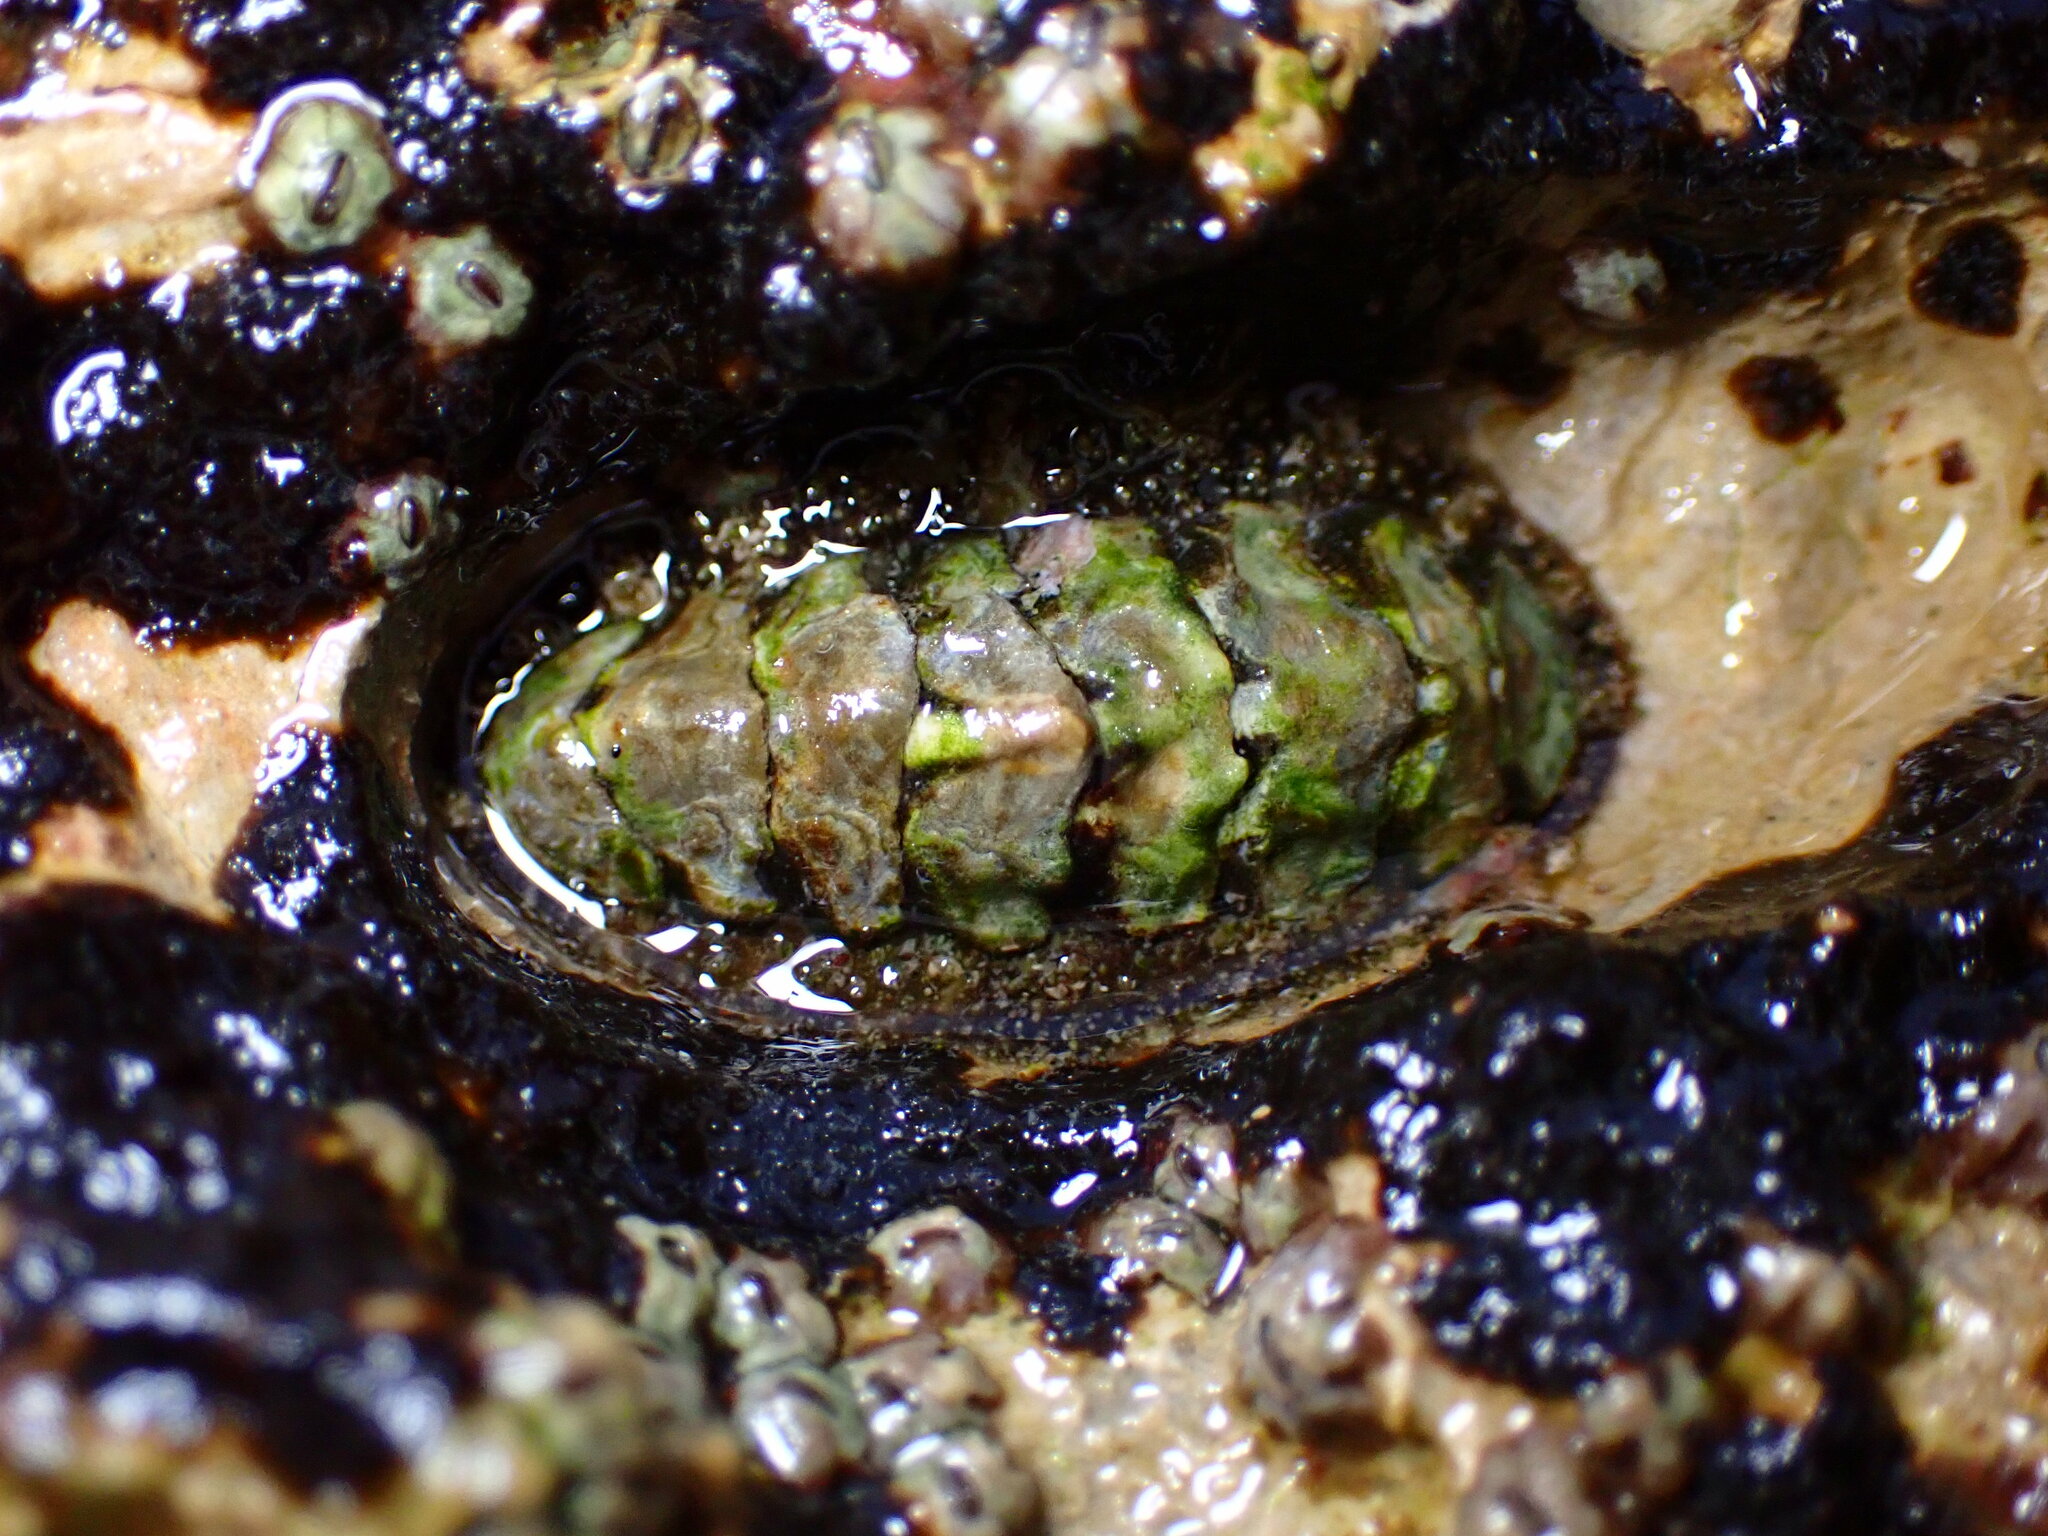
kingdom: Animalia
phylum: Mollusca
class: Polyplacophora
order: Chitonida
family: Tonicellidae
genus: Nuttallina
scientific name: Nuttallina californica
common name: California nuttall chiton
